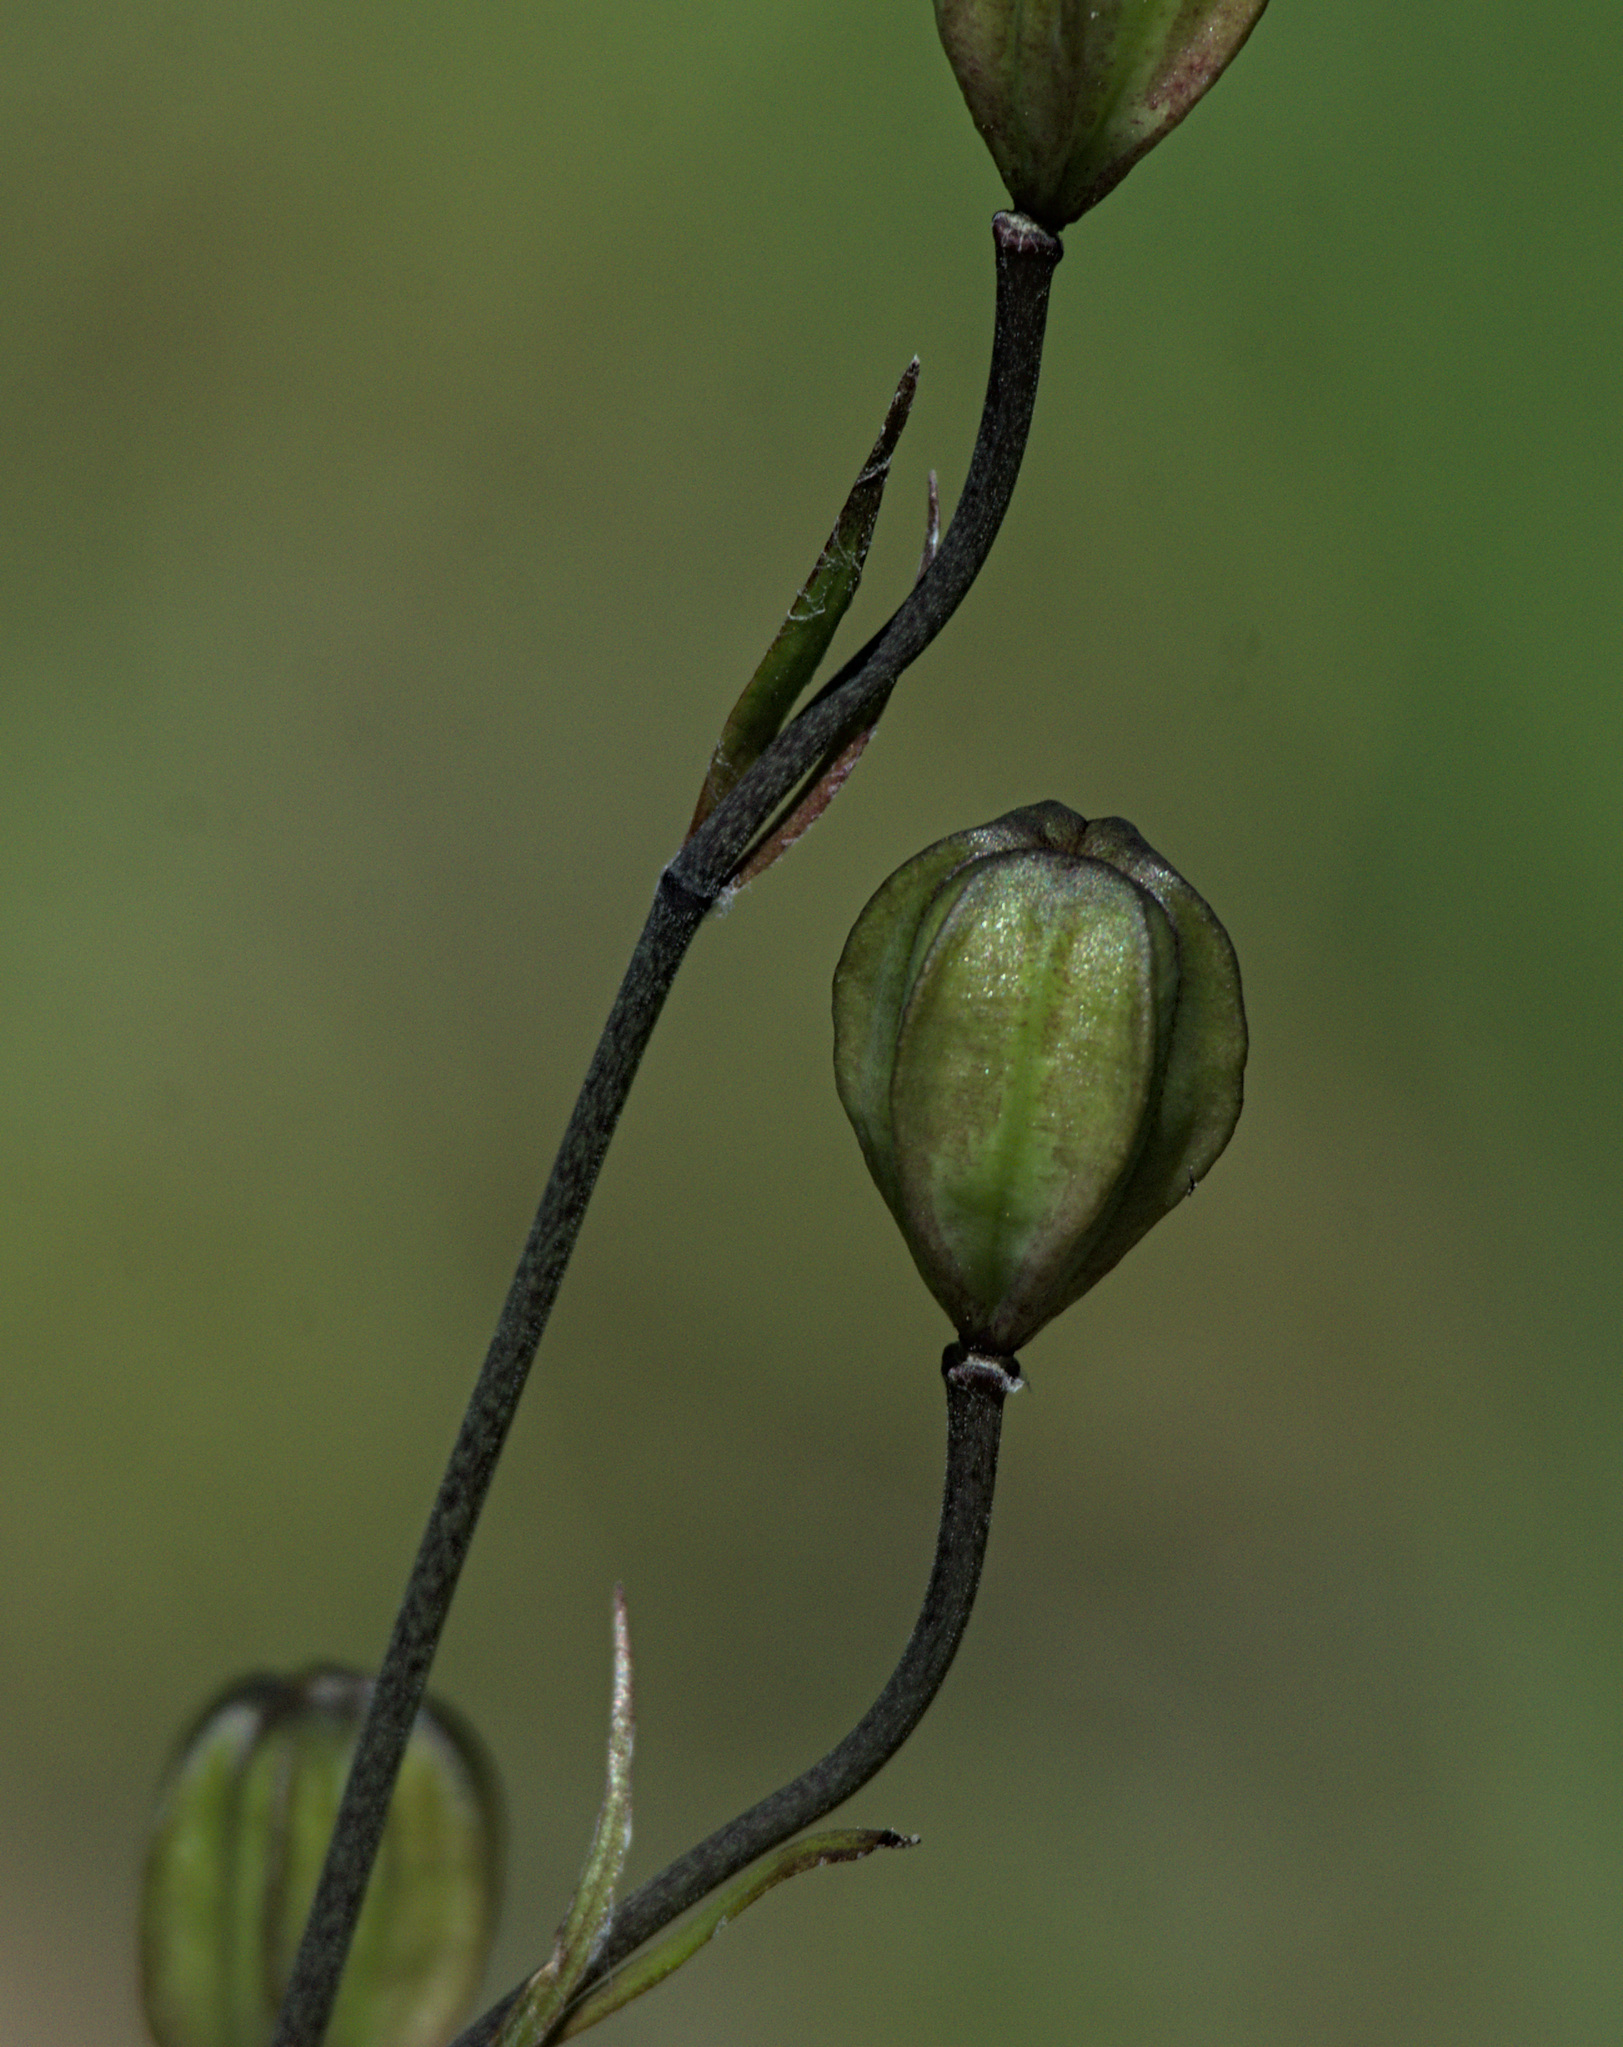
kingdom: Plantae
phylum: Tracheophyta
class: Liliopsida
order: Liliales
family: Liliaceae
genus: Lilium
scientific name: Lilium martagon
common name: Martagon lily
